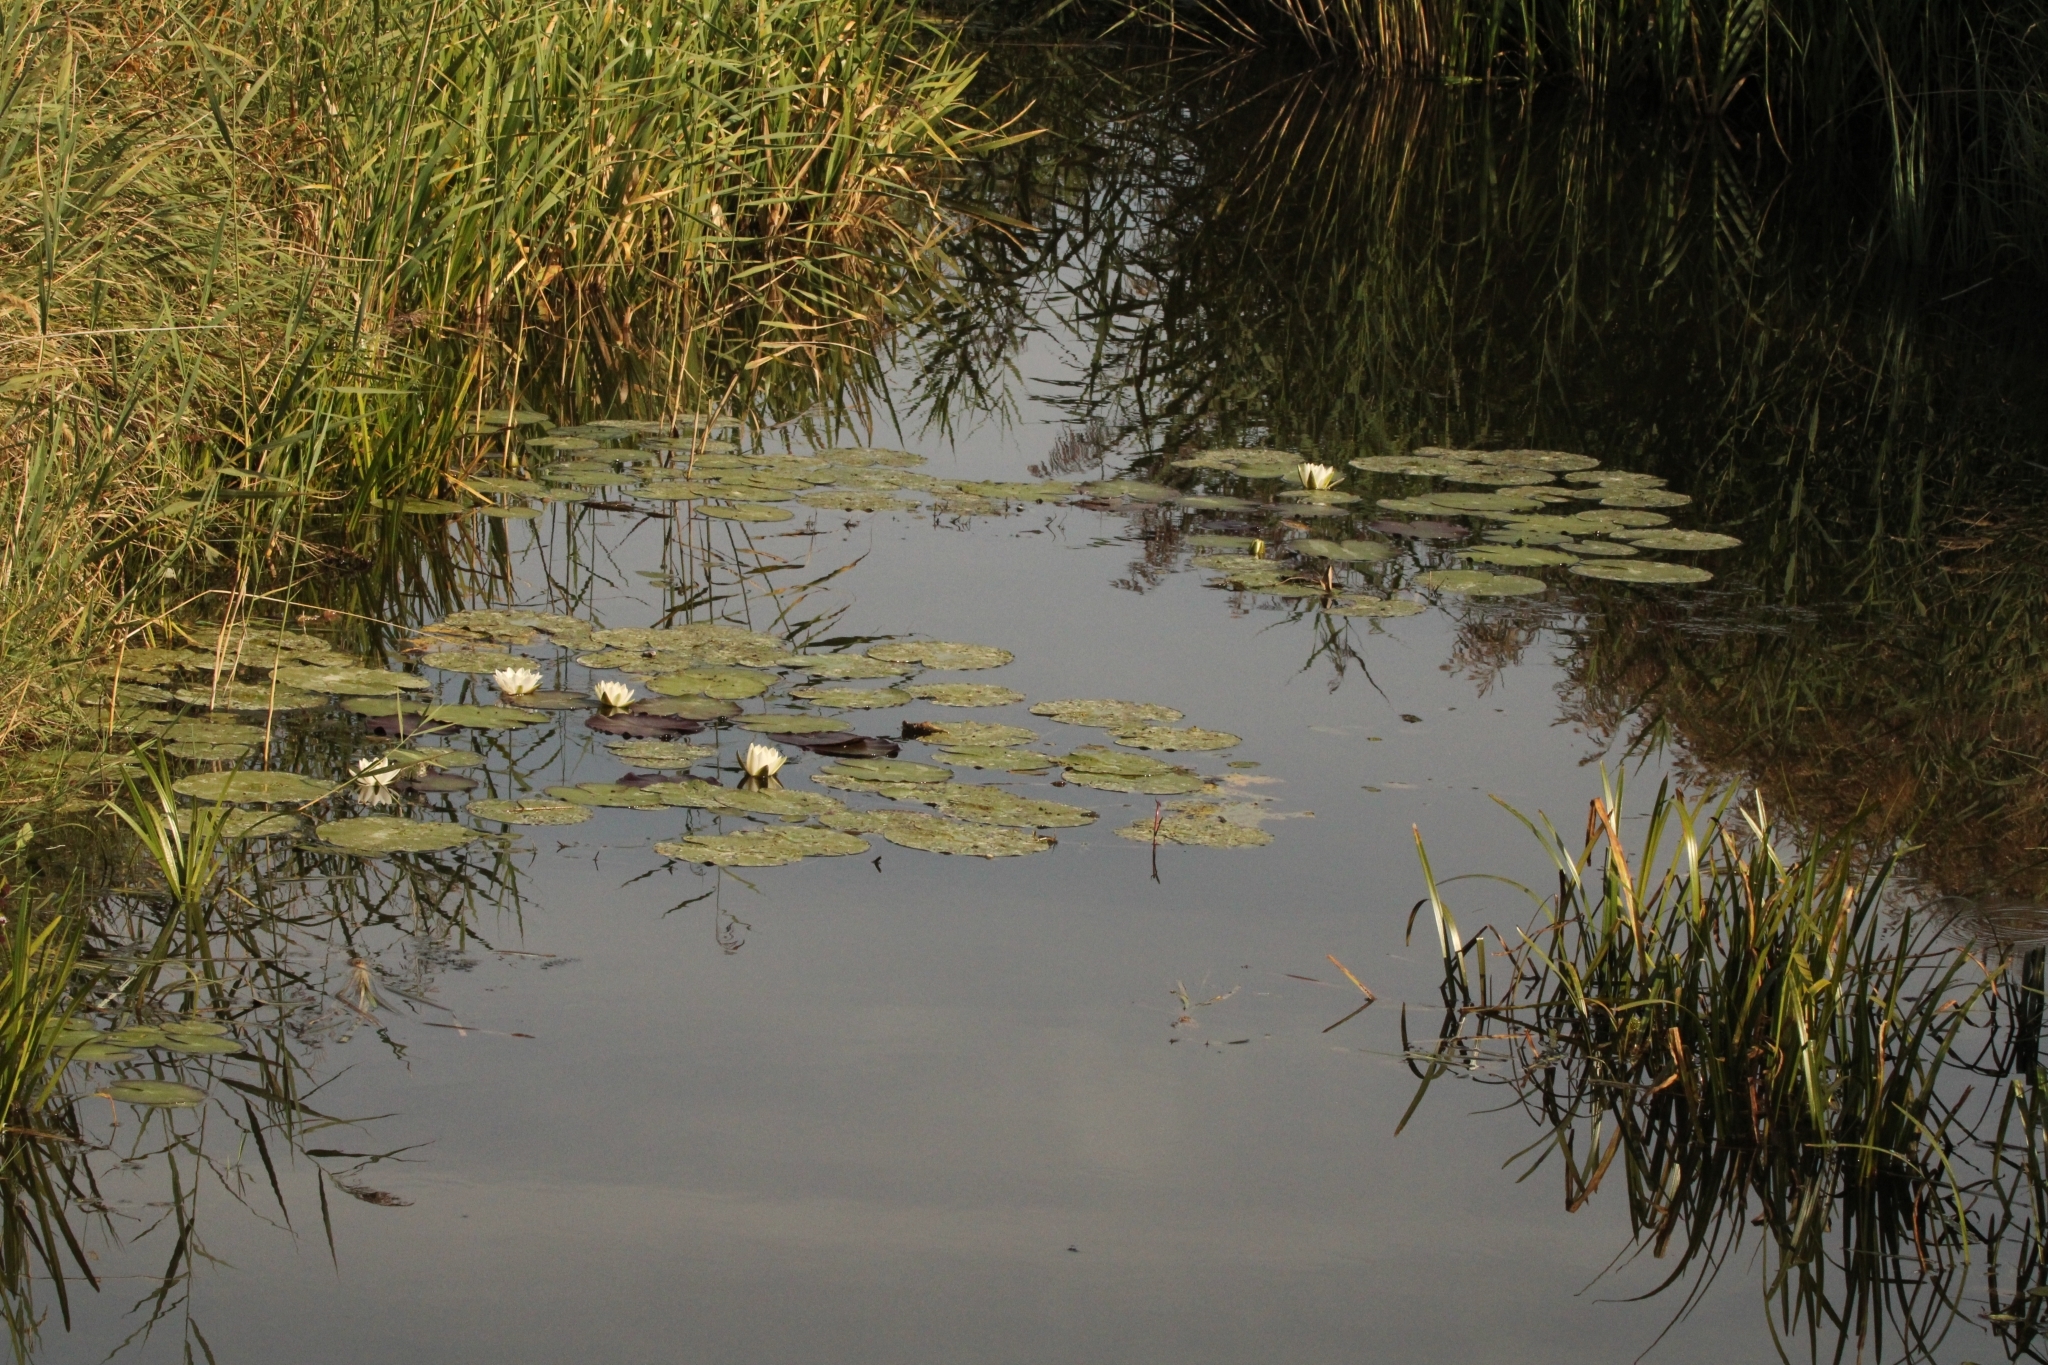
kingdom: Plantae
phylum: Tracheophyta
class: Magnoliopsida
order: Nymphaeales
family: Nymphaeaceae
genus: Nymphaea
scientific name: Nymphaea alba
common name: White water-lily
